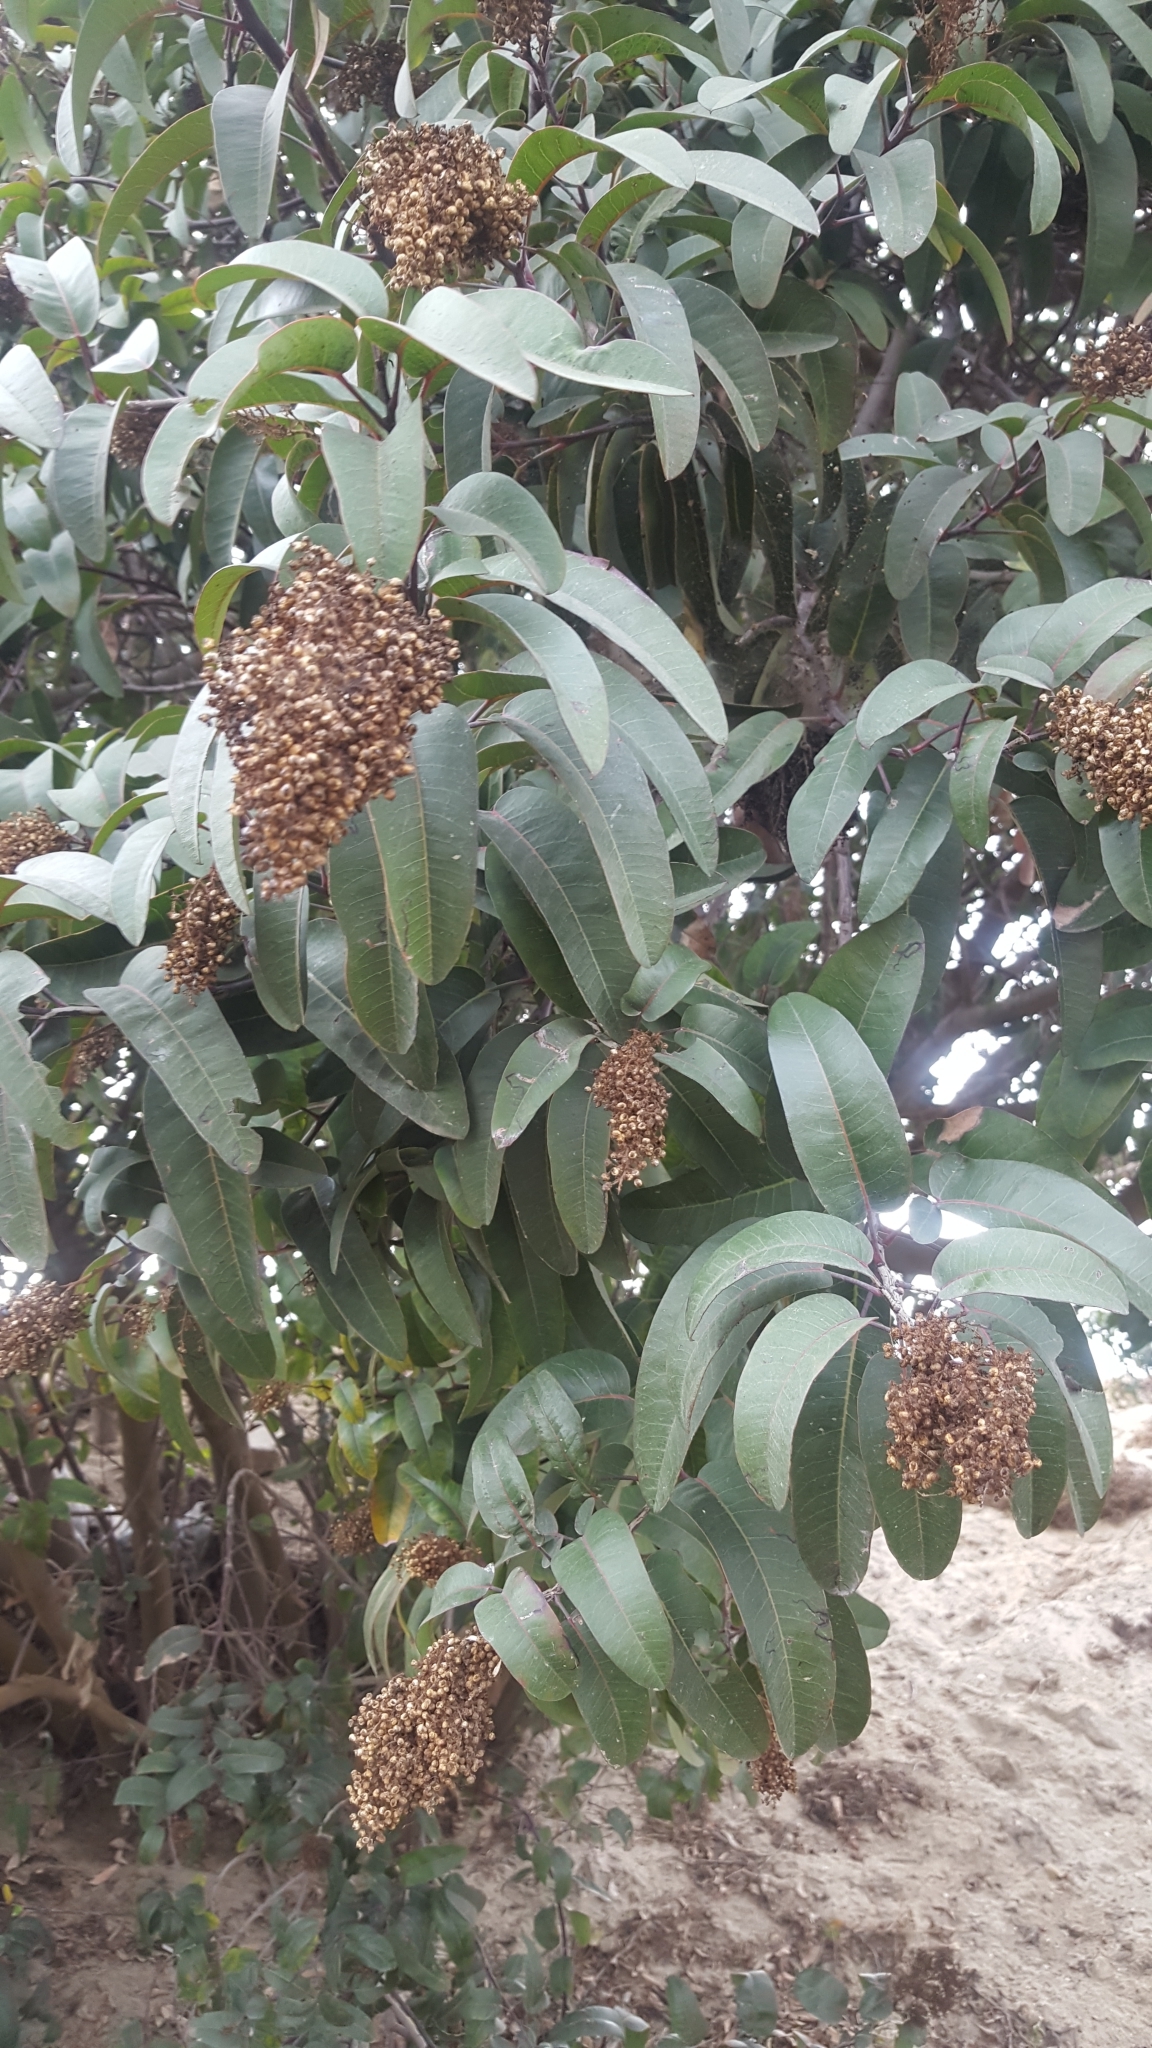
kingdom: Plantae
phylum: Tracheophyta
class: Magnoliopsida
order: Sapindales
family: Anacardiaceae
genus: Malosma
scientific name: Malosma laurina
